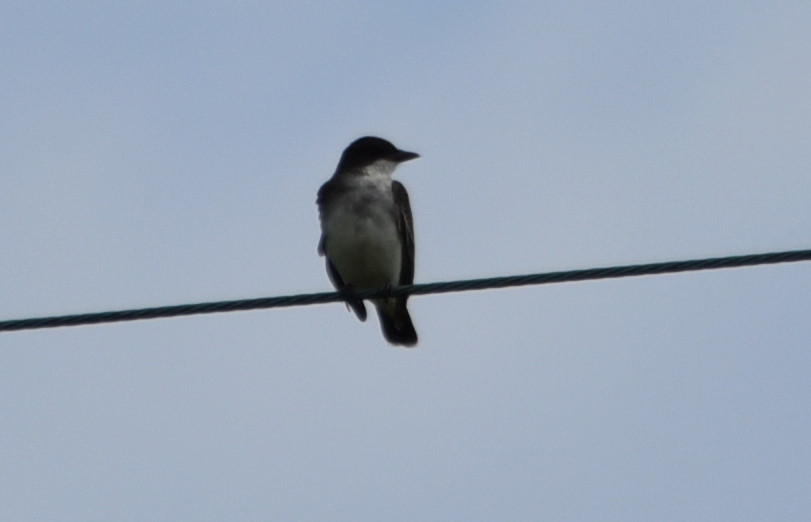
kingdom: Animalia
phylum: Chordata
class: Aves
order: Passeriformes
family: Tyrannidae
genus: Tyrannus
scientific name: Tyrannus tyrannus
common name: Eastern kingbird
